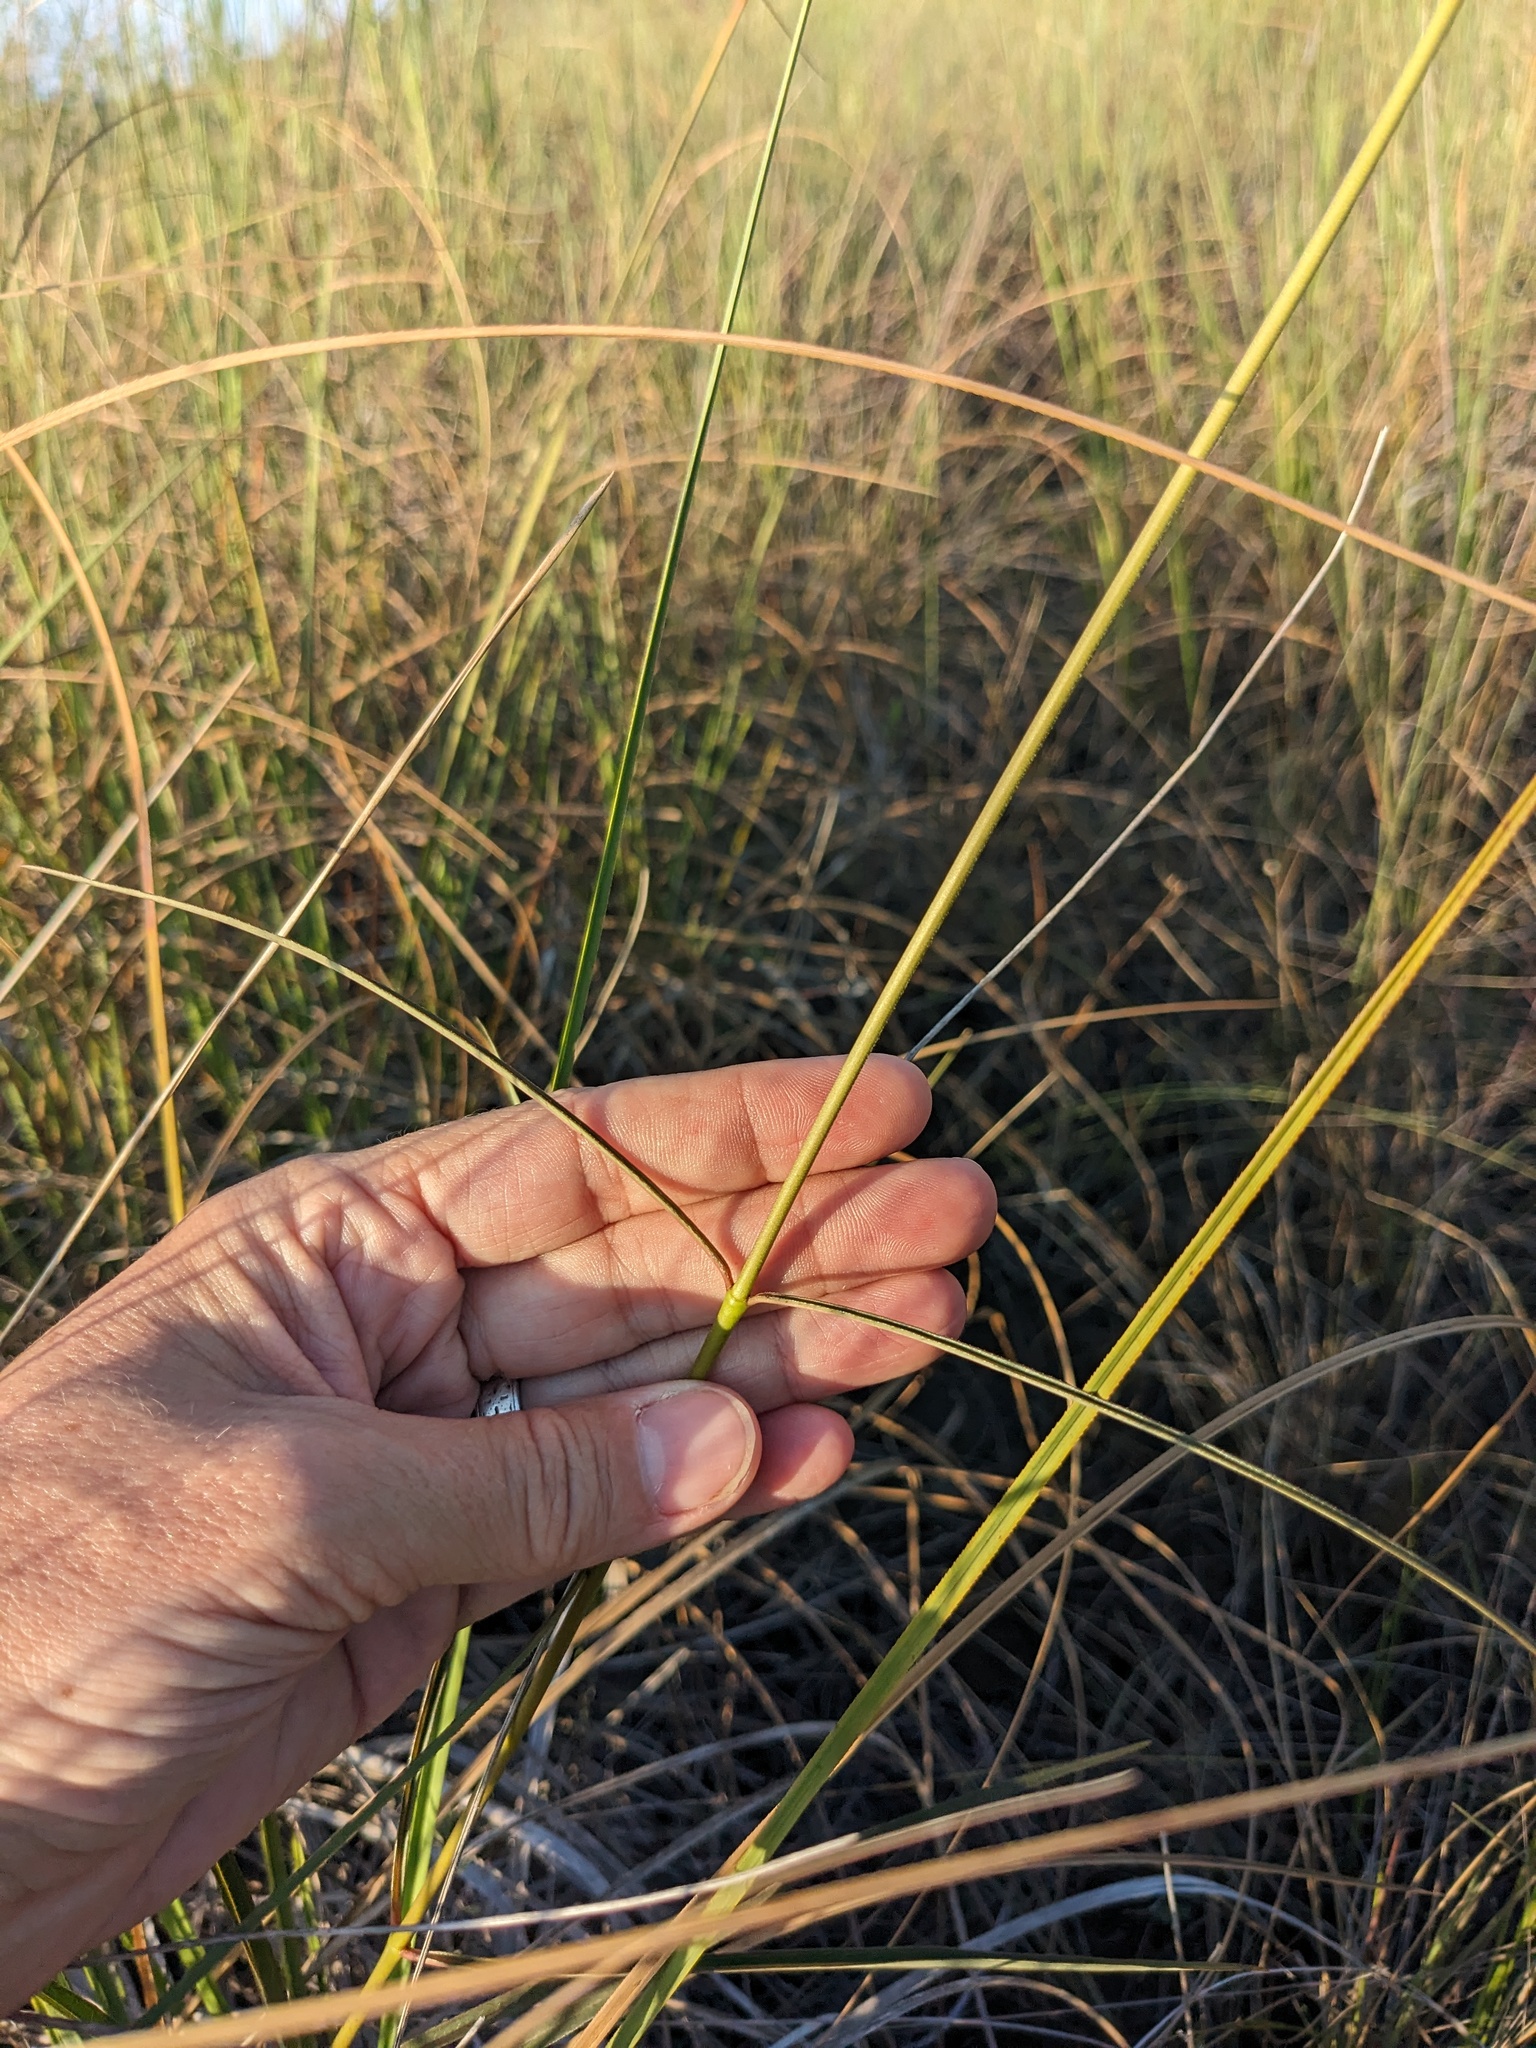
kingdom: Plantae
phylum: Tracheophyta
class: Magnoliopsida
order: Gentianales
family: Apocynaceae
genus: Asclepias
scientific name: Asclepias lanceolata
